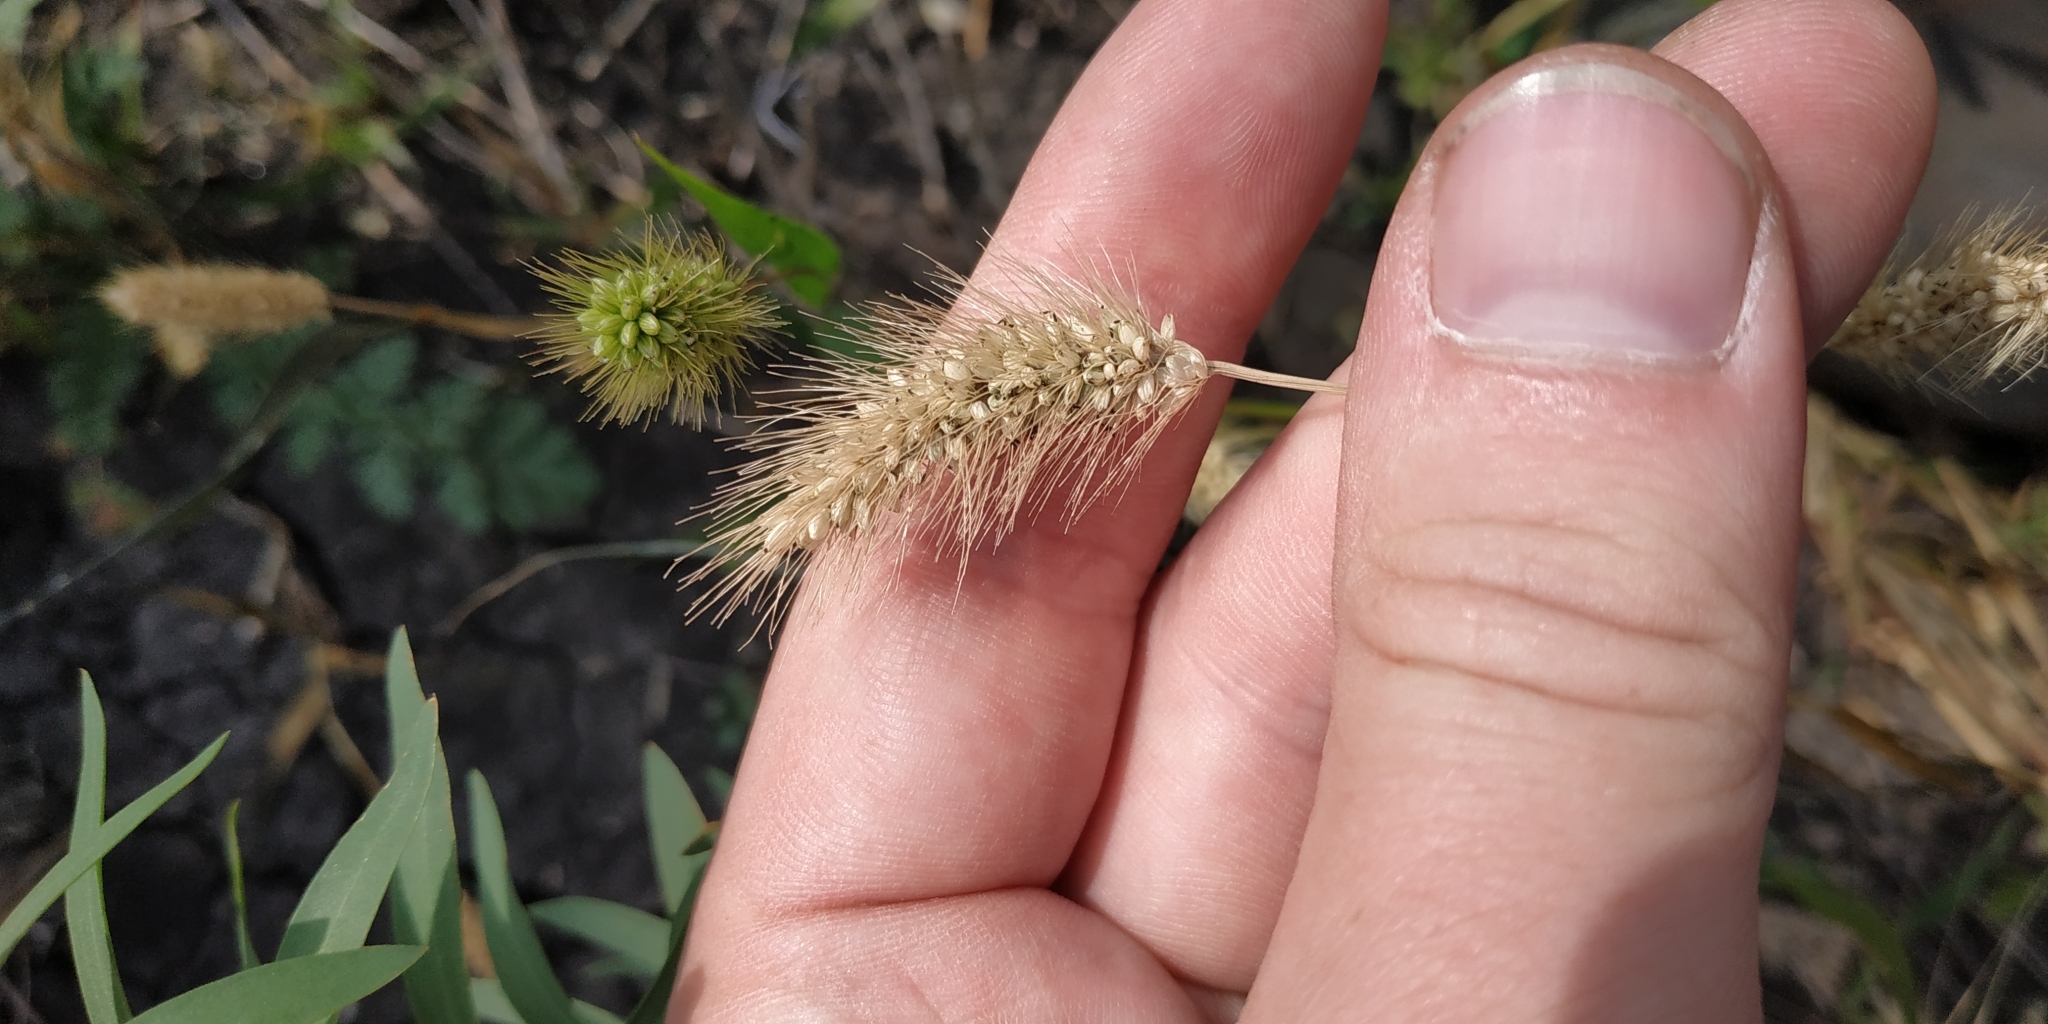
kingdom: Plantae
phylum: Tracheophyta
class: Liliopsida
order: Poales
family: Poaceae
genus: Setaria
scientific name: Setaria viridis
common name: Green bristlegrass
